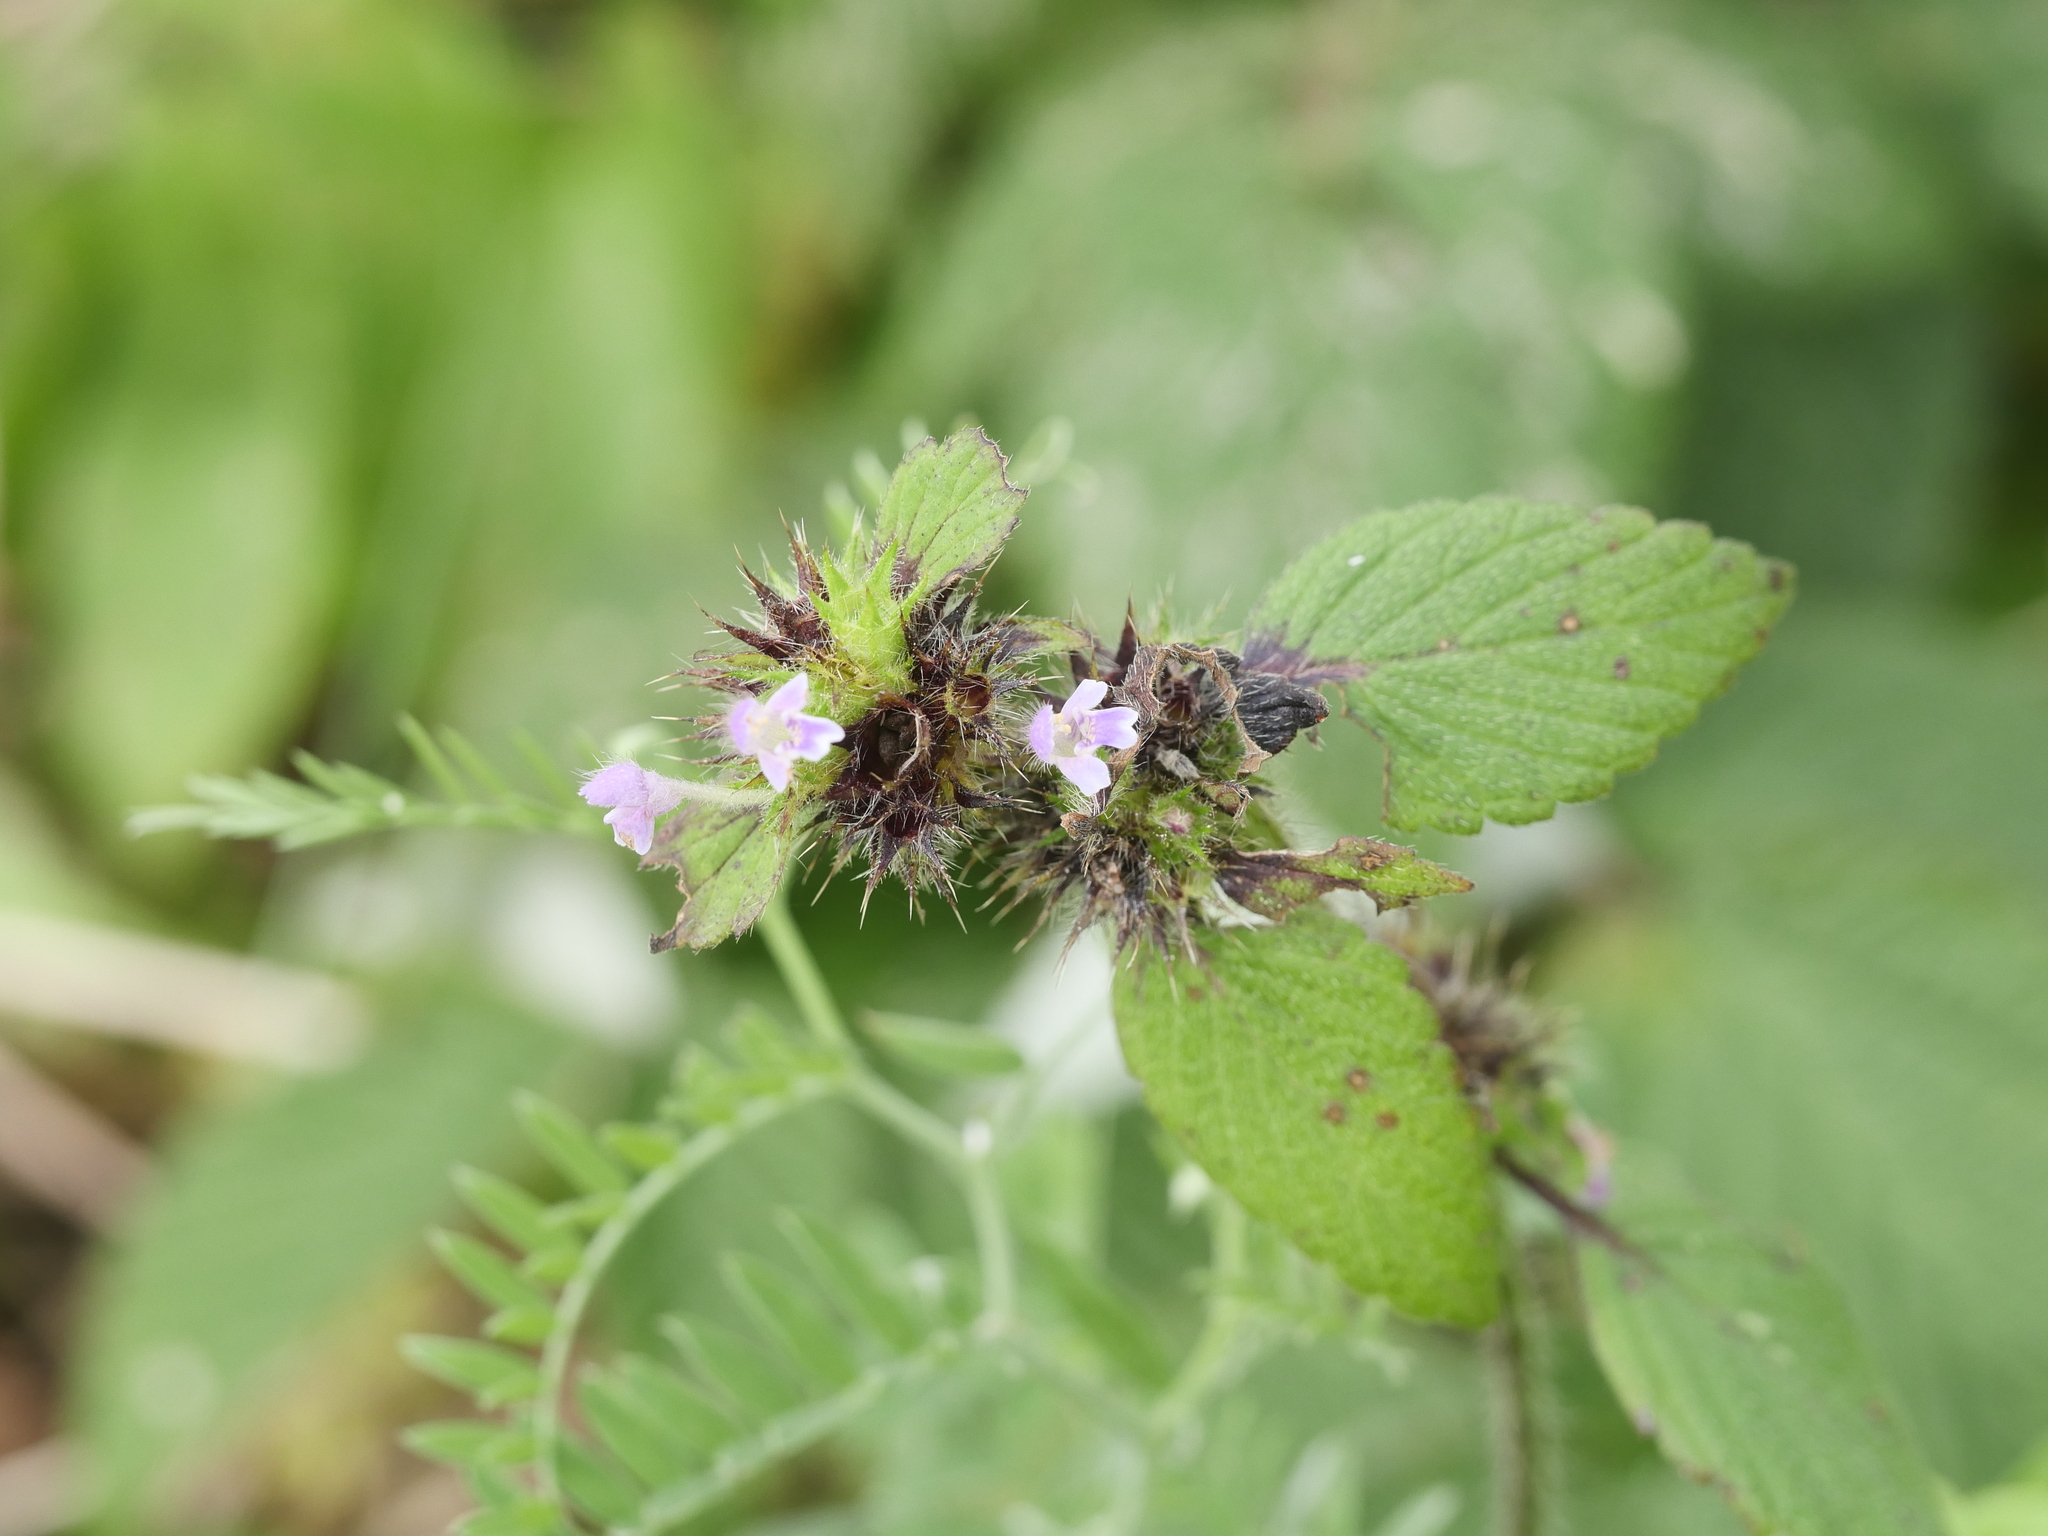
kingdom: Plantae
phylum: Tracheophyta
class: Magnoliopsida
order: Lamiales
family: Lamiaceae
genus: Galeopsis
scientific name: Galeopsis bifida
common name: Bifid hemp-nettle
